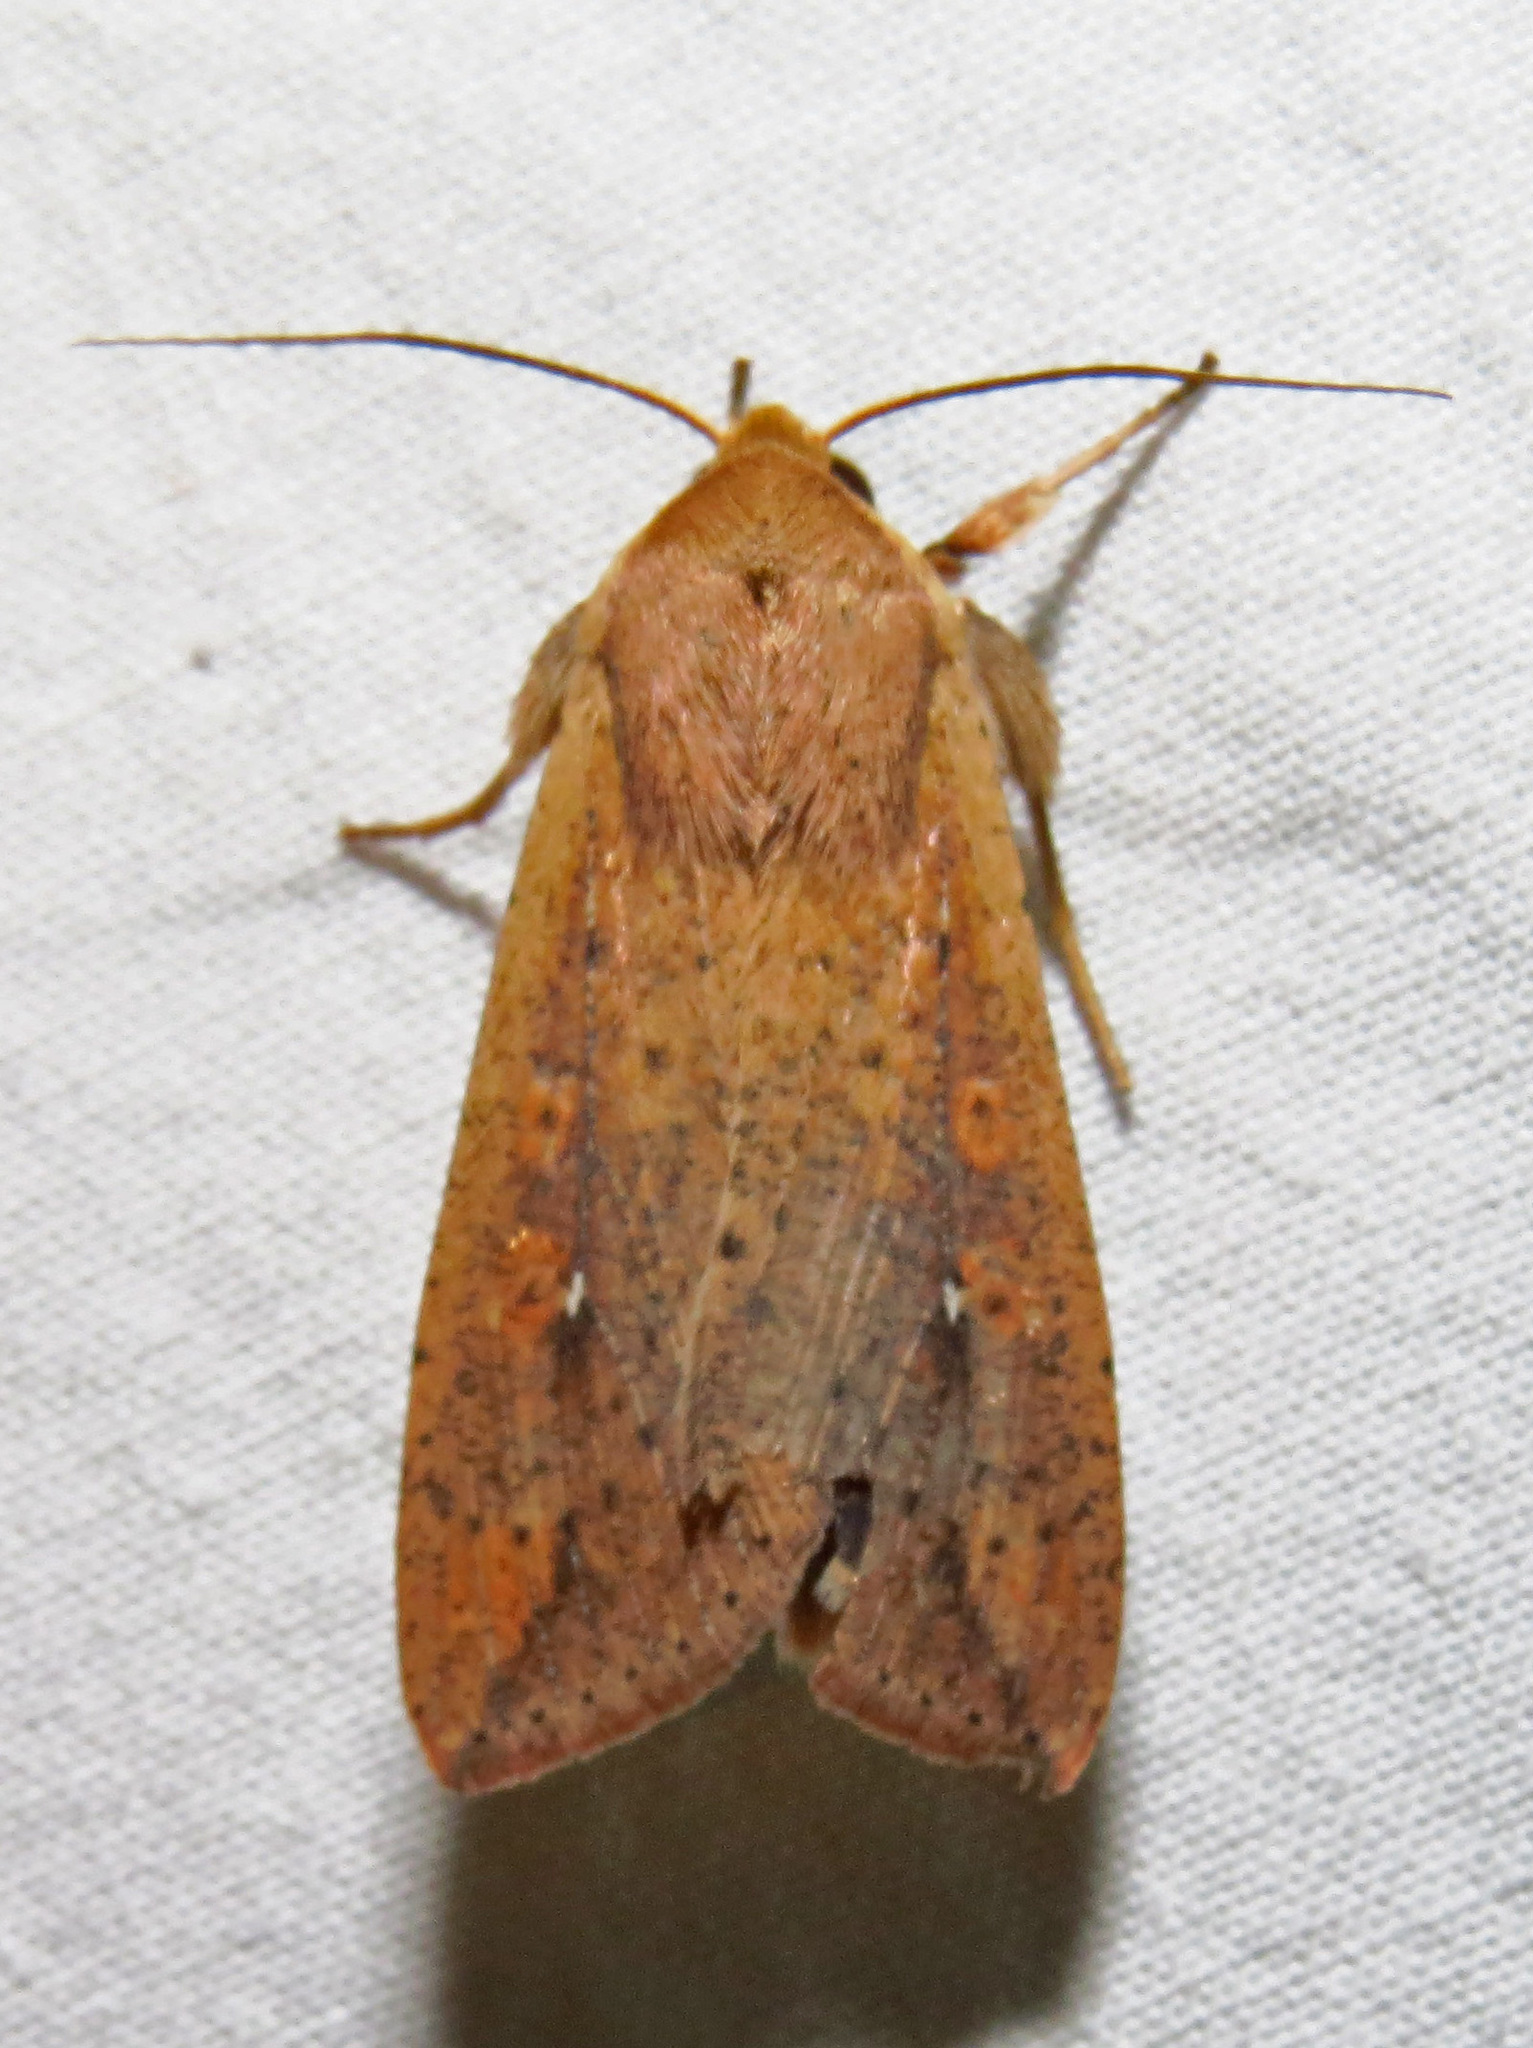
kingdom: Animalia
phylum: Arthropoda
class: Insecta
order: Lepidoptera
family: Noctuidae
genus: Mythimna
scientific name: Mythimna unipuncta
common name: White-speck
